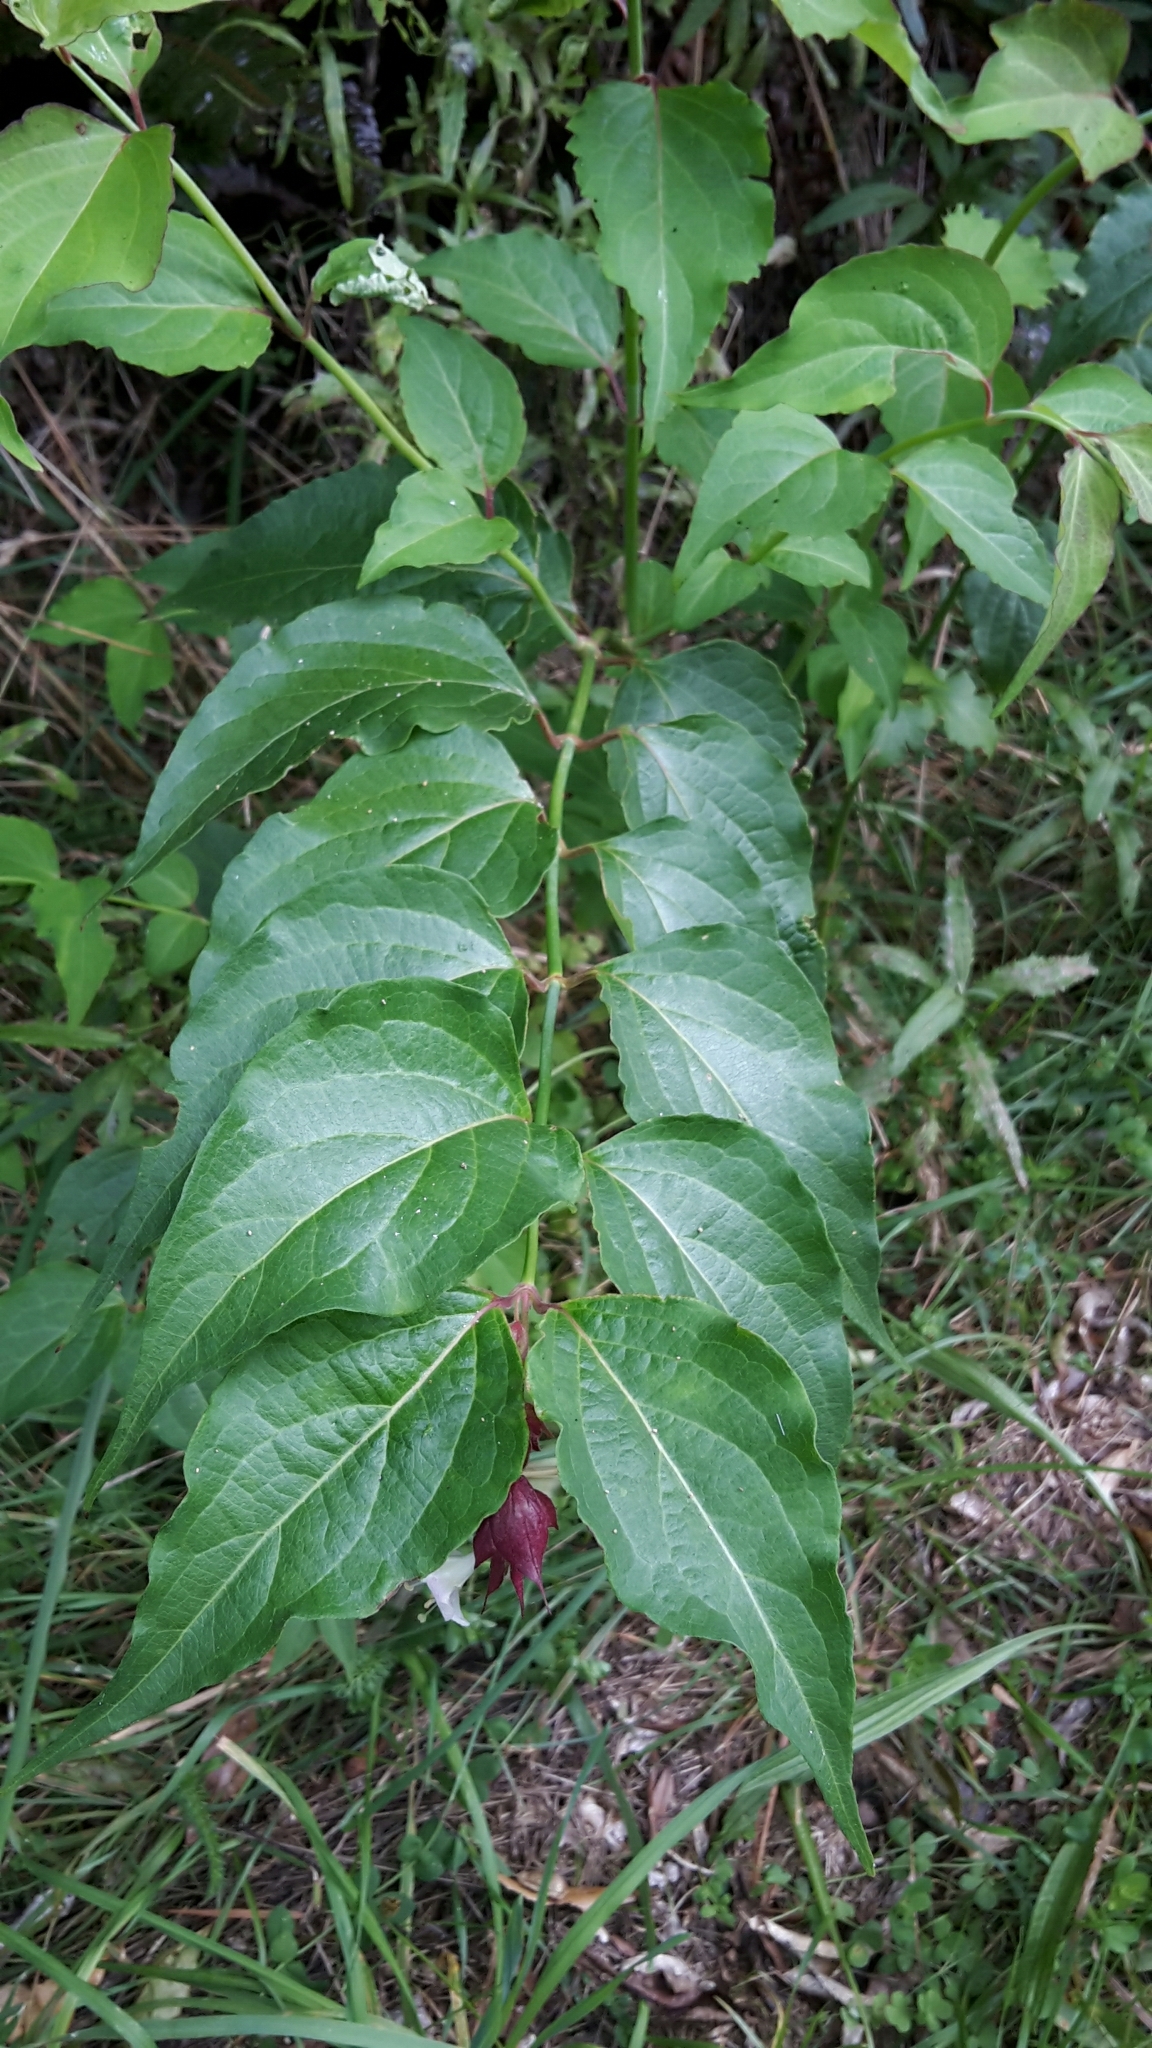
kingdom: Plantae
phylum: Tracheophyta
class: Magnoliopsida
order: Dipsacales
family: Caprifoliaceae
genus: Leycesteria
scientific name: Leycesteria formosa
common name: Himalayan honeysuckle
